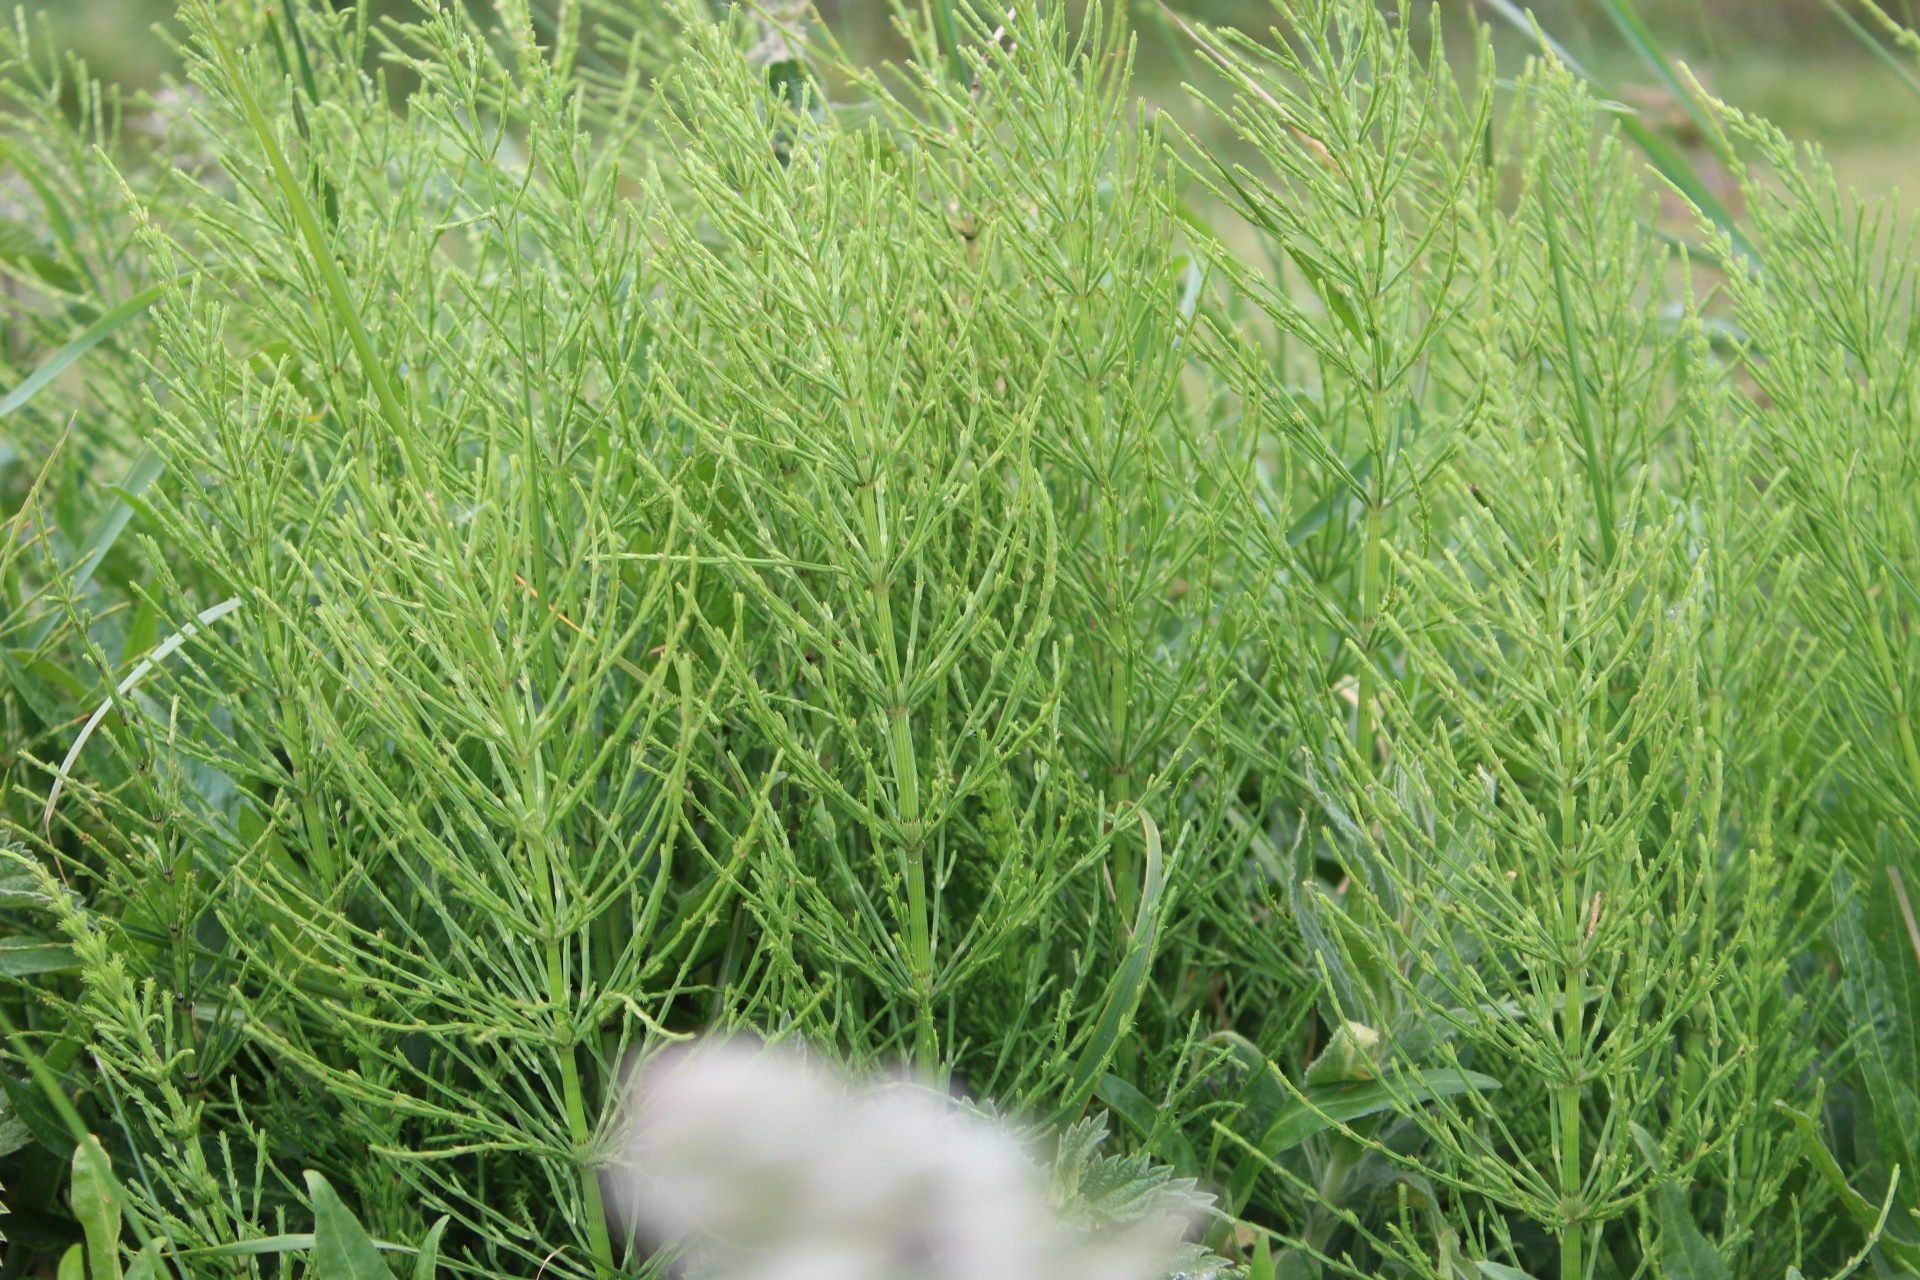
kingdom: Plantae
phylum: Tracheophyta
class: Polypodiopsida
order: Equisetales
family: Equisetaceae
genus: Equisetum
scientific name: Equisetum arvense
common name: Field horsetail
